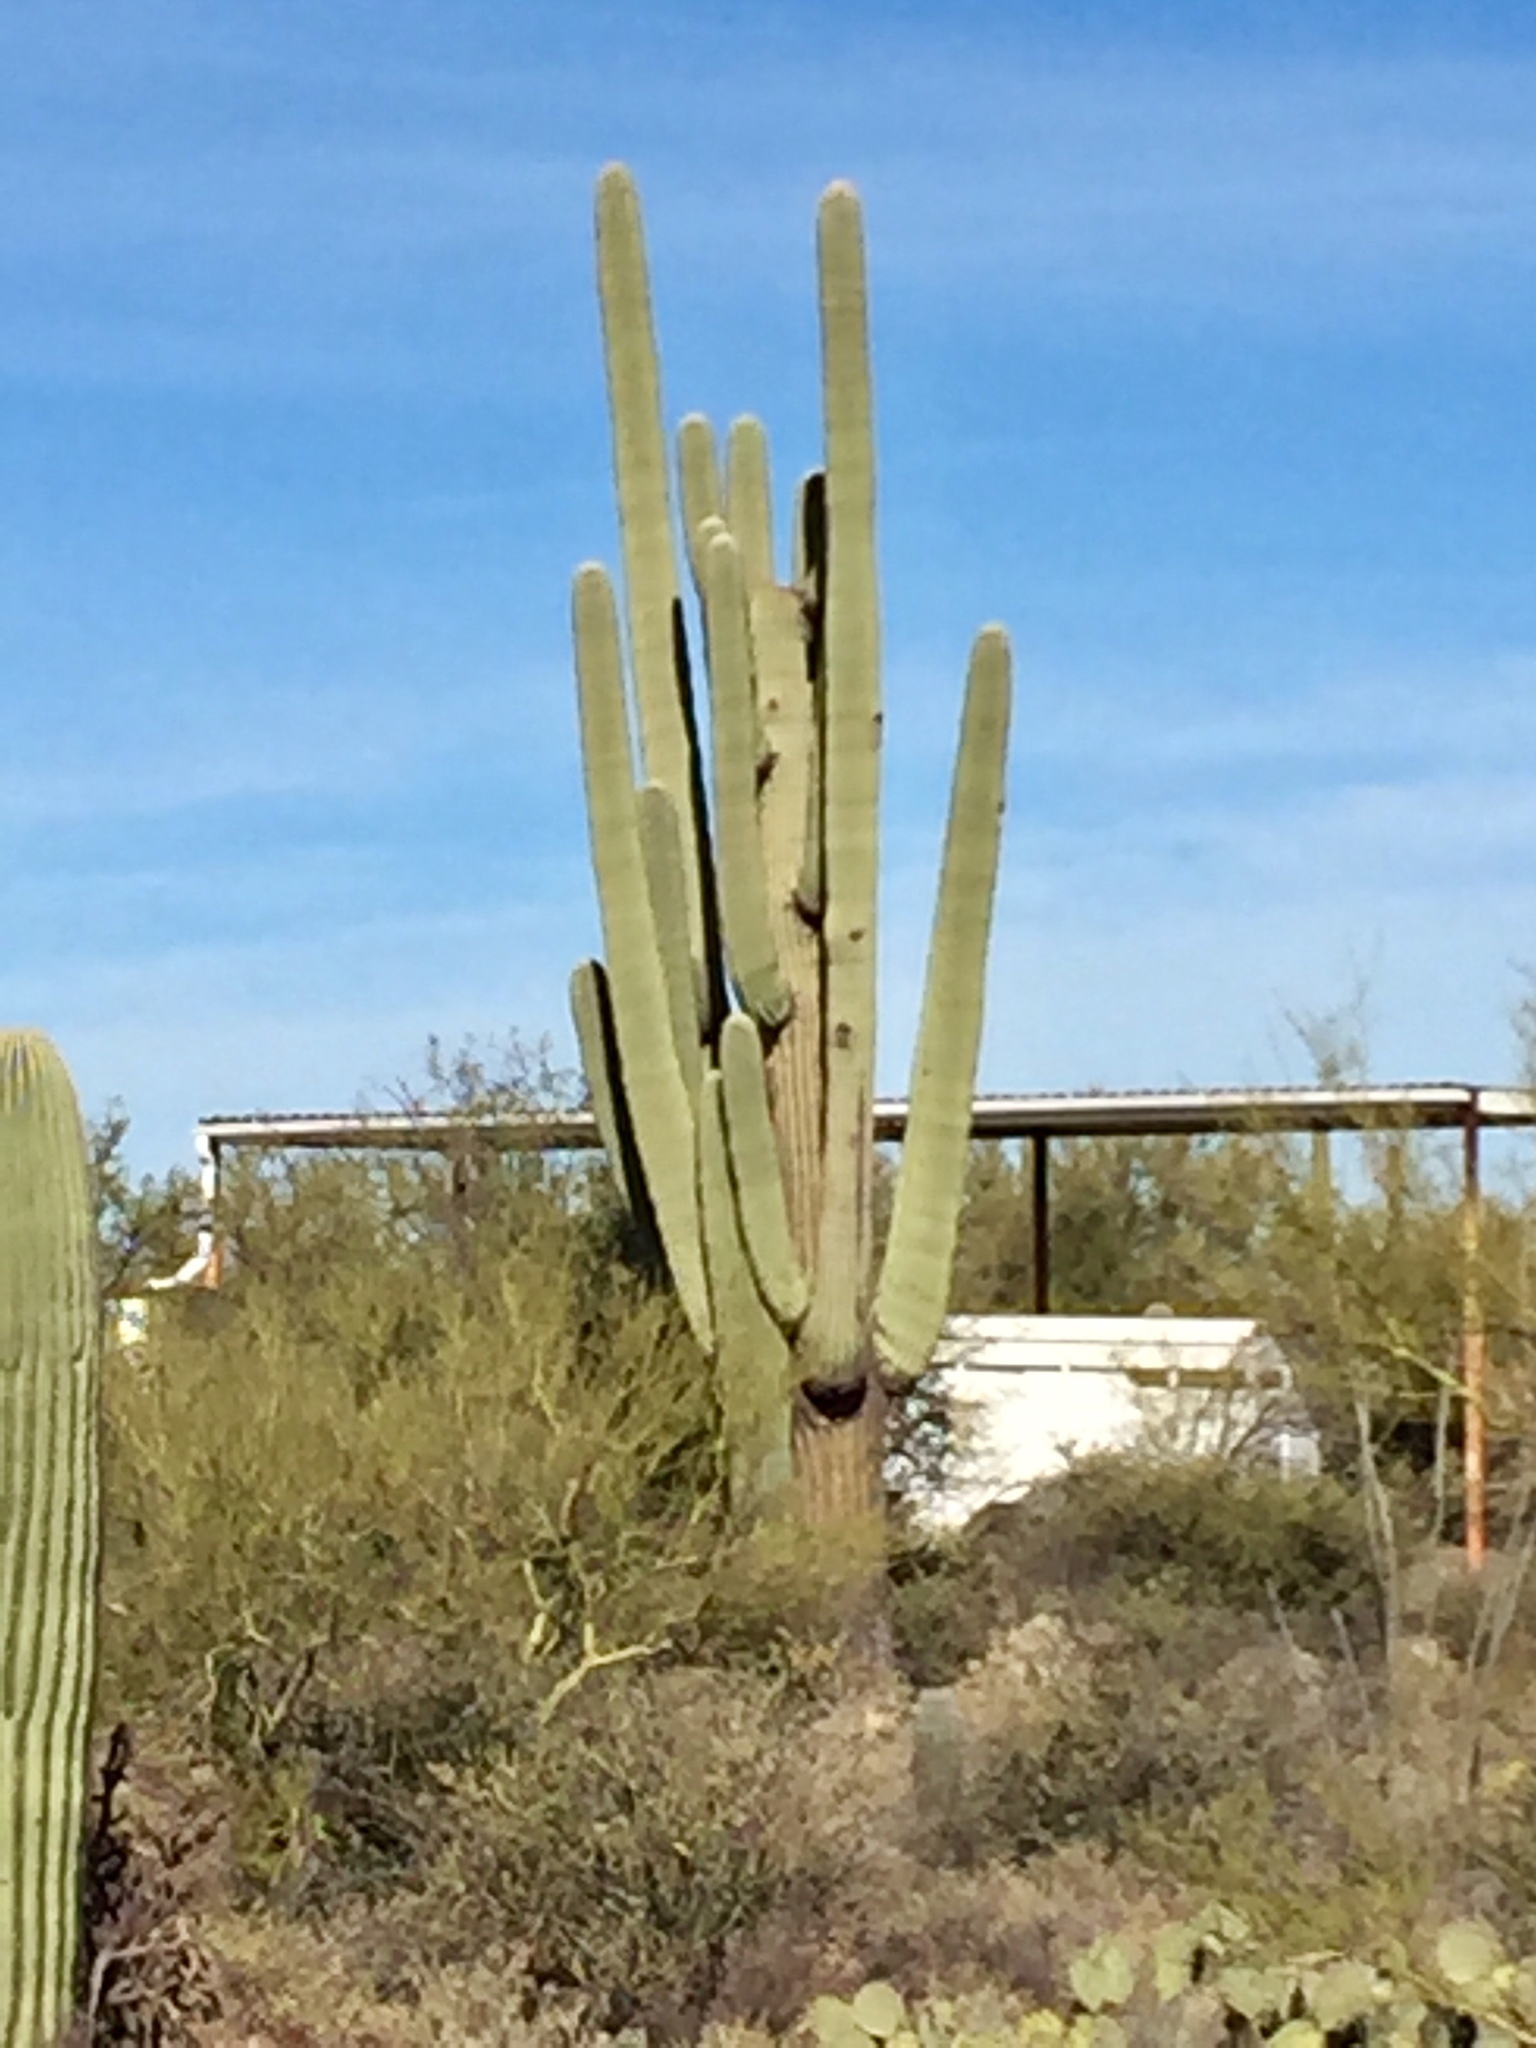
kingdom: Plantae
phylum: Tracheophyta
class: Magnoliopsida
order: Caryophyllales
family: Cactaceae
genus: Carnegiea
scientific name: Carnegiea gigantea
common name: Saguaro
